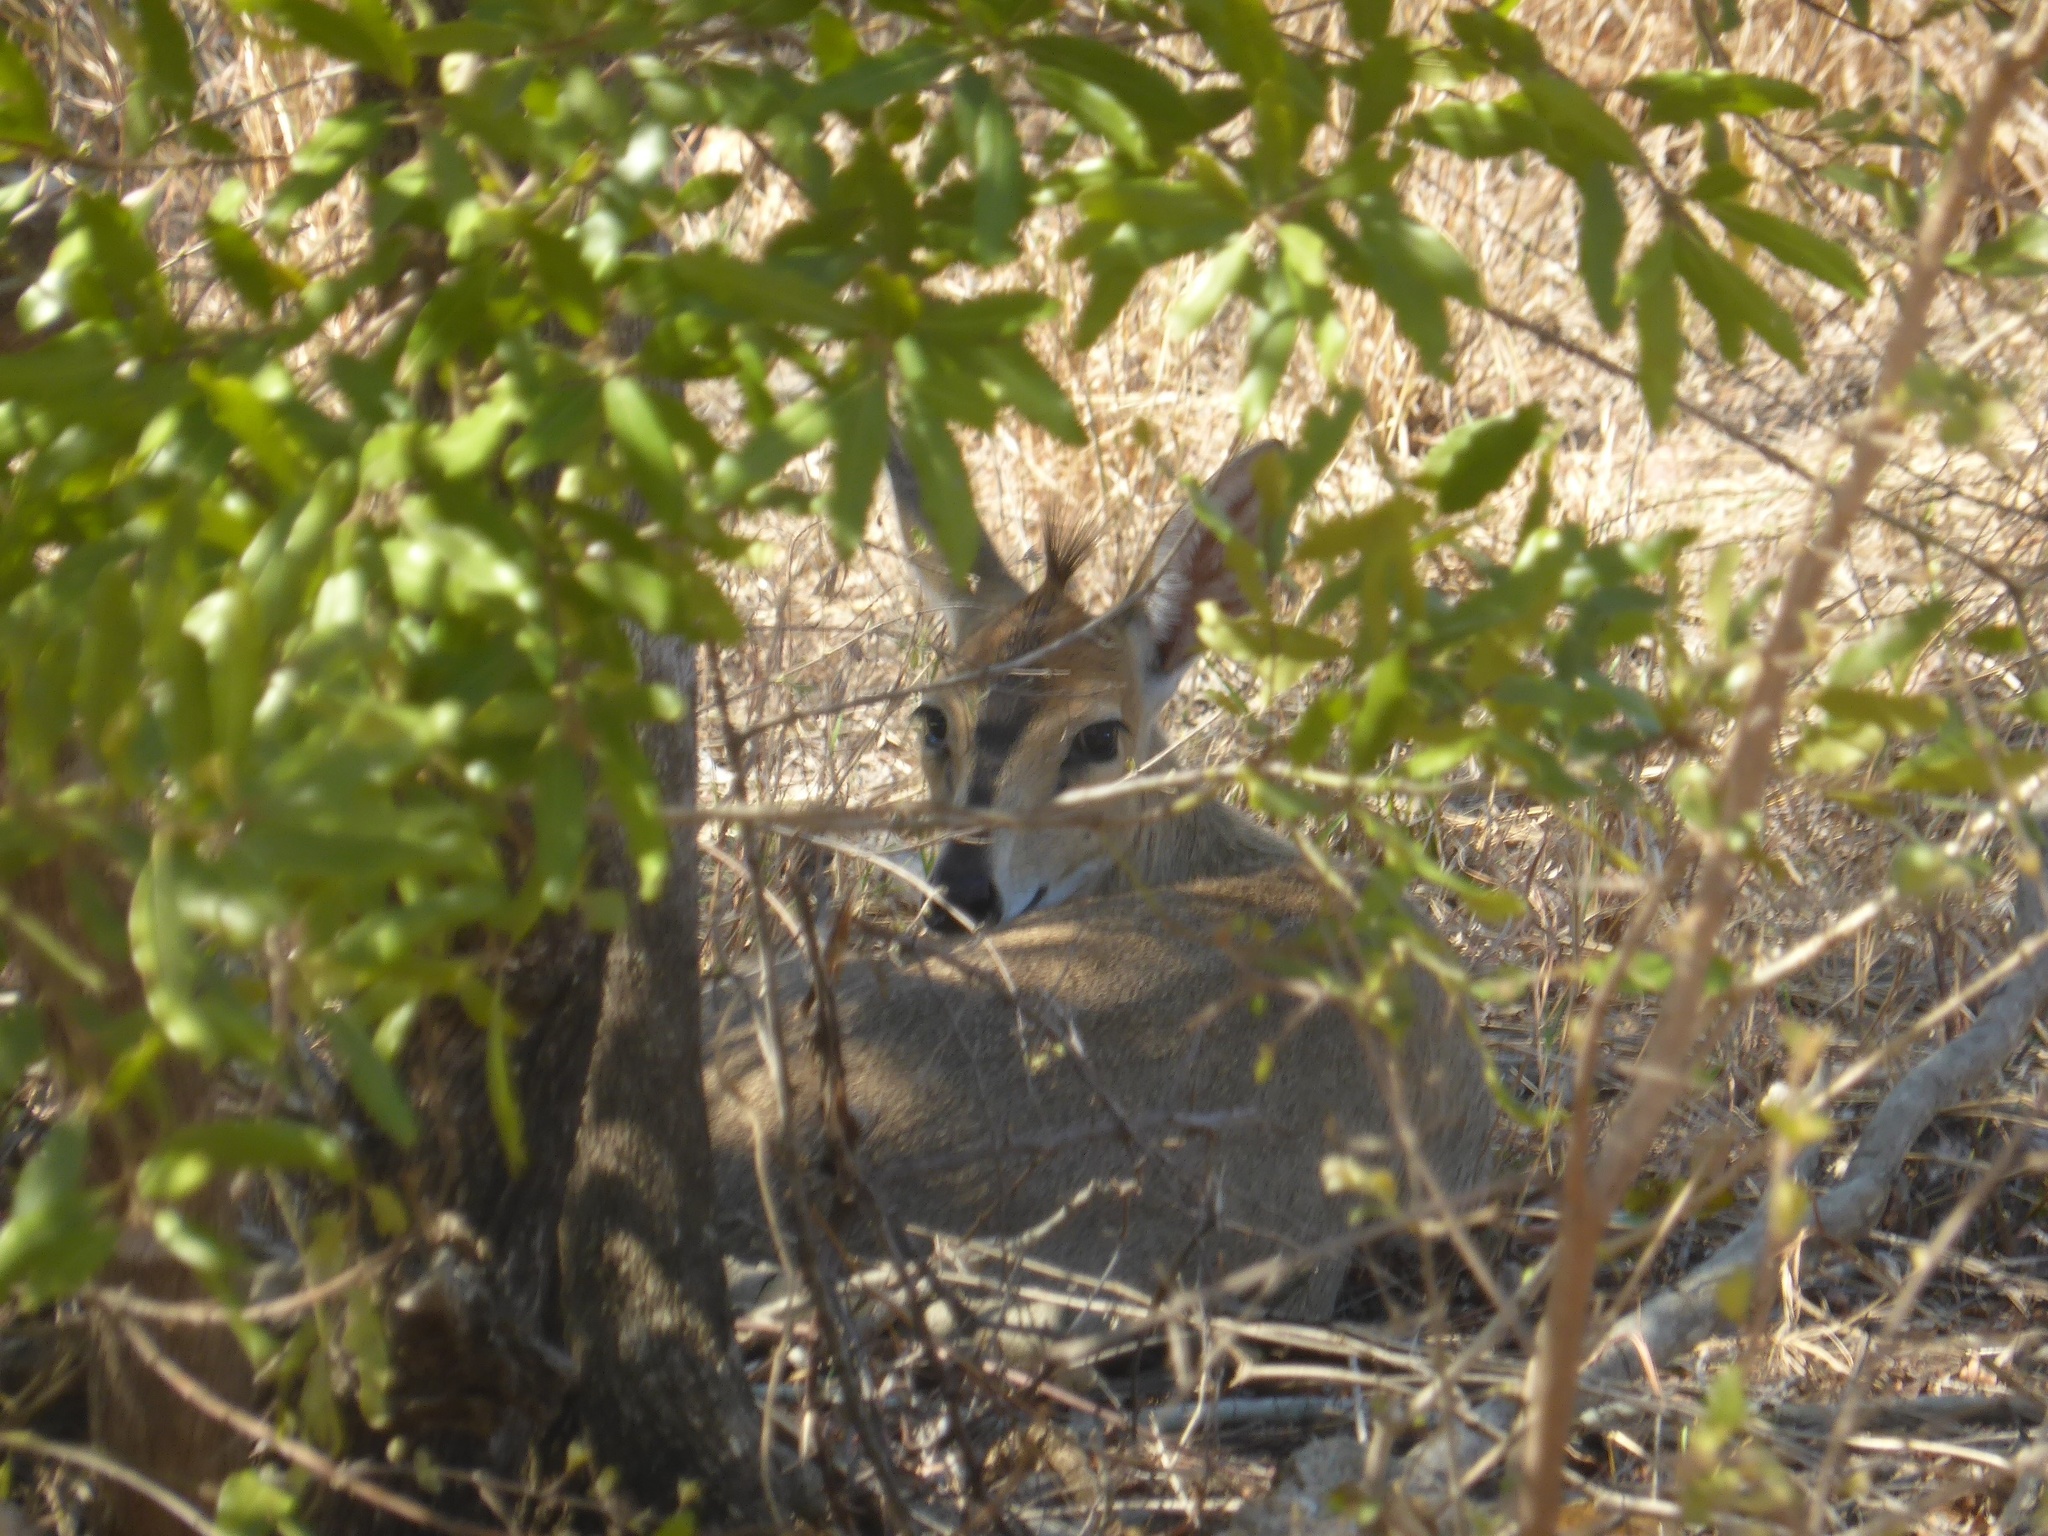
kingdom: Animalia
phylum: Chordata
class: Mammalia
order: Artiodactyla
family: Bovidae
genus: Sylvicapra
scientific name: Sylvicapra grimmia
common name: Bush duiker
